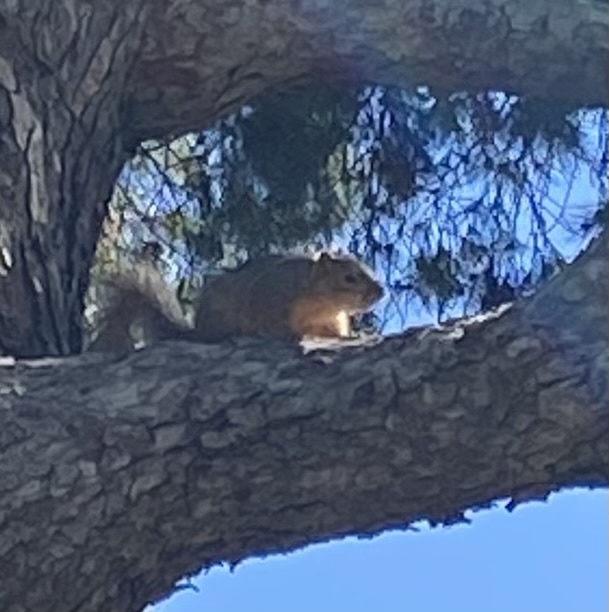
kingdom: Animalia
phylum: Chordata
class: Mammalia
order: Rodentia
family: Sciuridae
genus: Sciurus
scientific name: Sciurus niger
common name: Fox squirrel
